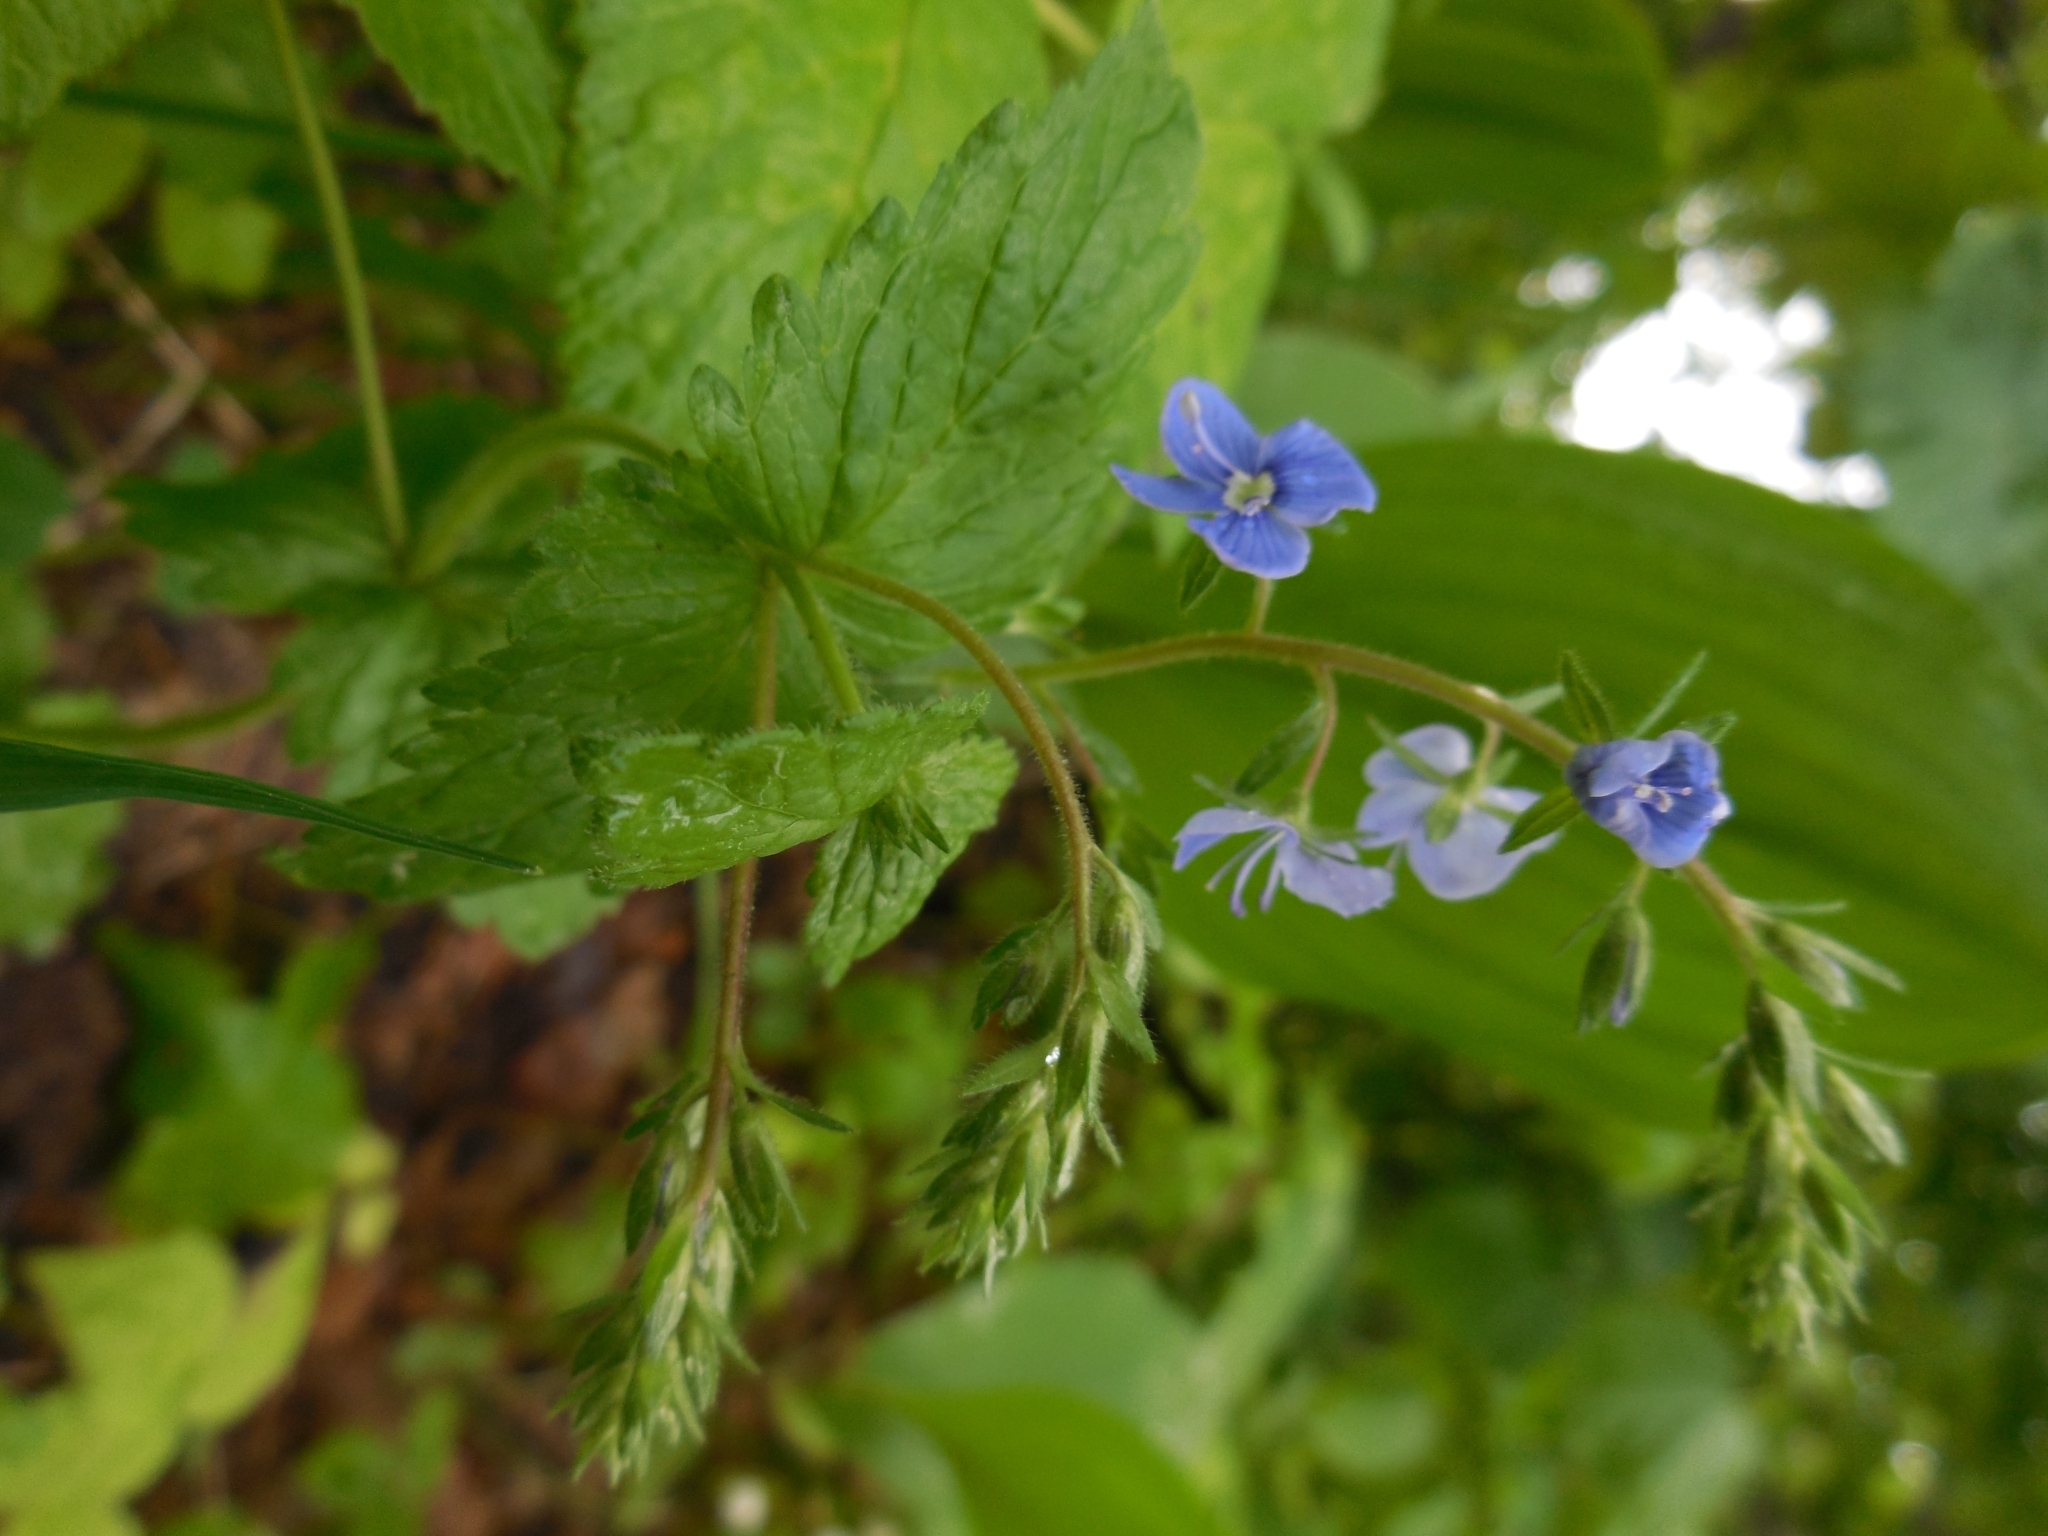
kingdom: Plantae
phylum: Tracheophyta
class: Magnoliopsida
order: Lamiales
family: Plantaginaceae
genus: Veronica
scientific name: Veronica chamaedrys
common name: Germander speedwell
